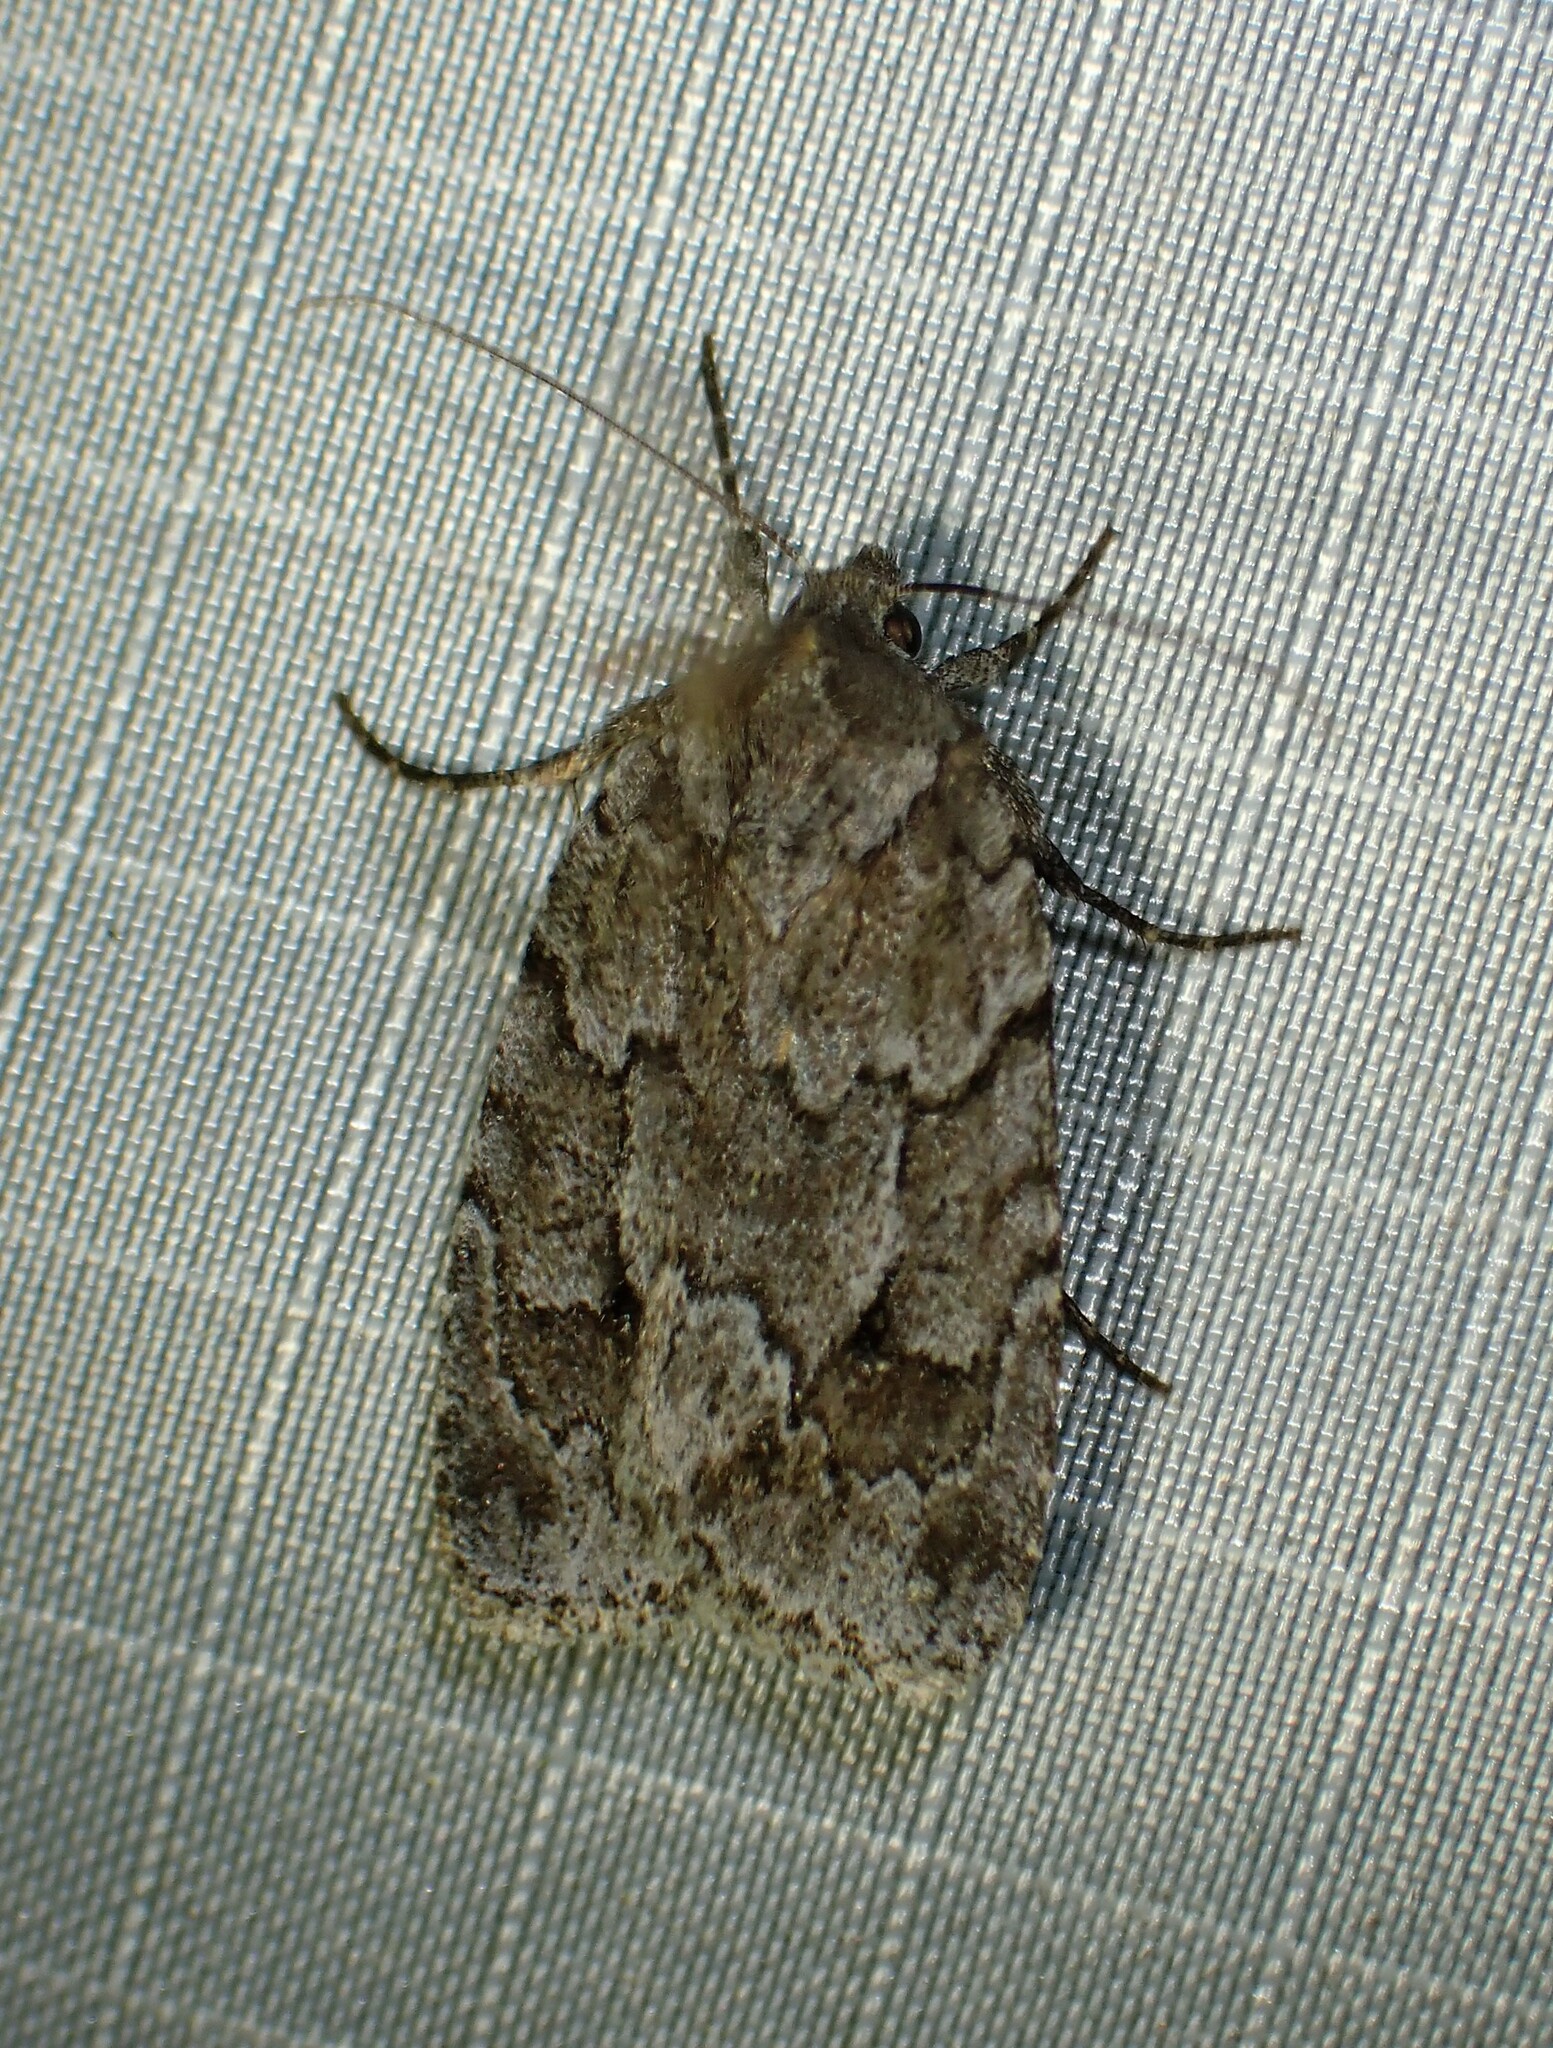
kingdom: Animalia
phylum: Arthropoda
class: Insecta
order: Lepidoptera
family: Noctuidae
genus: Sympistis
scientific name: Sympistis dentata
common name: Blueberry sallow
